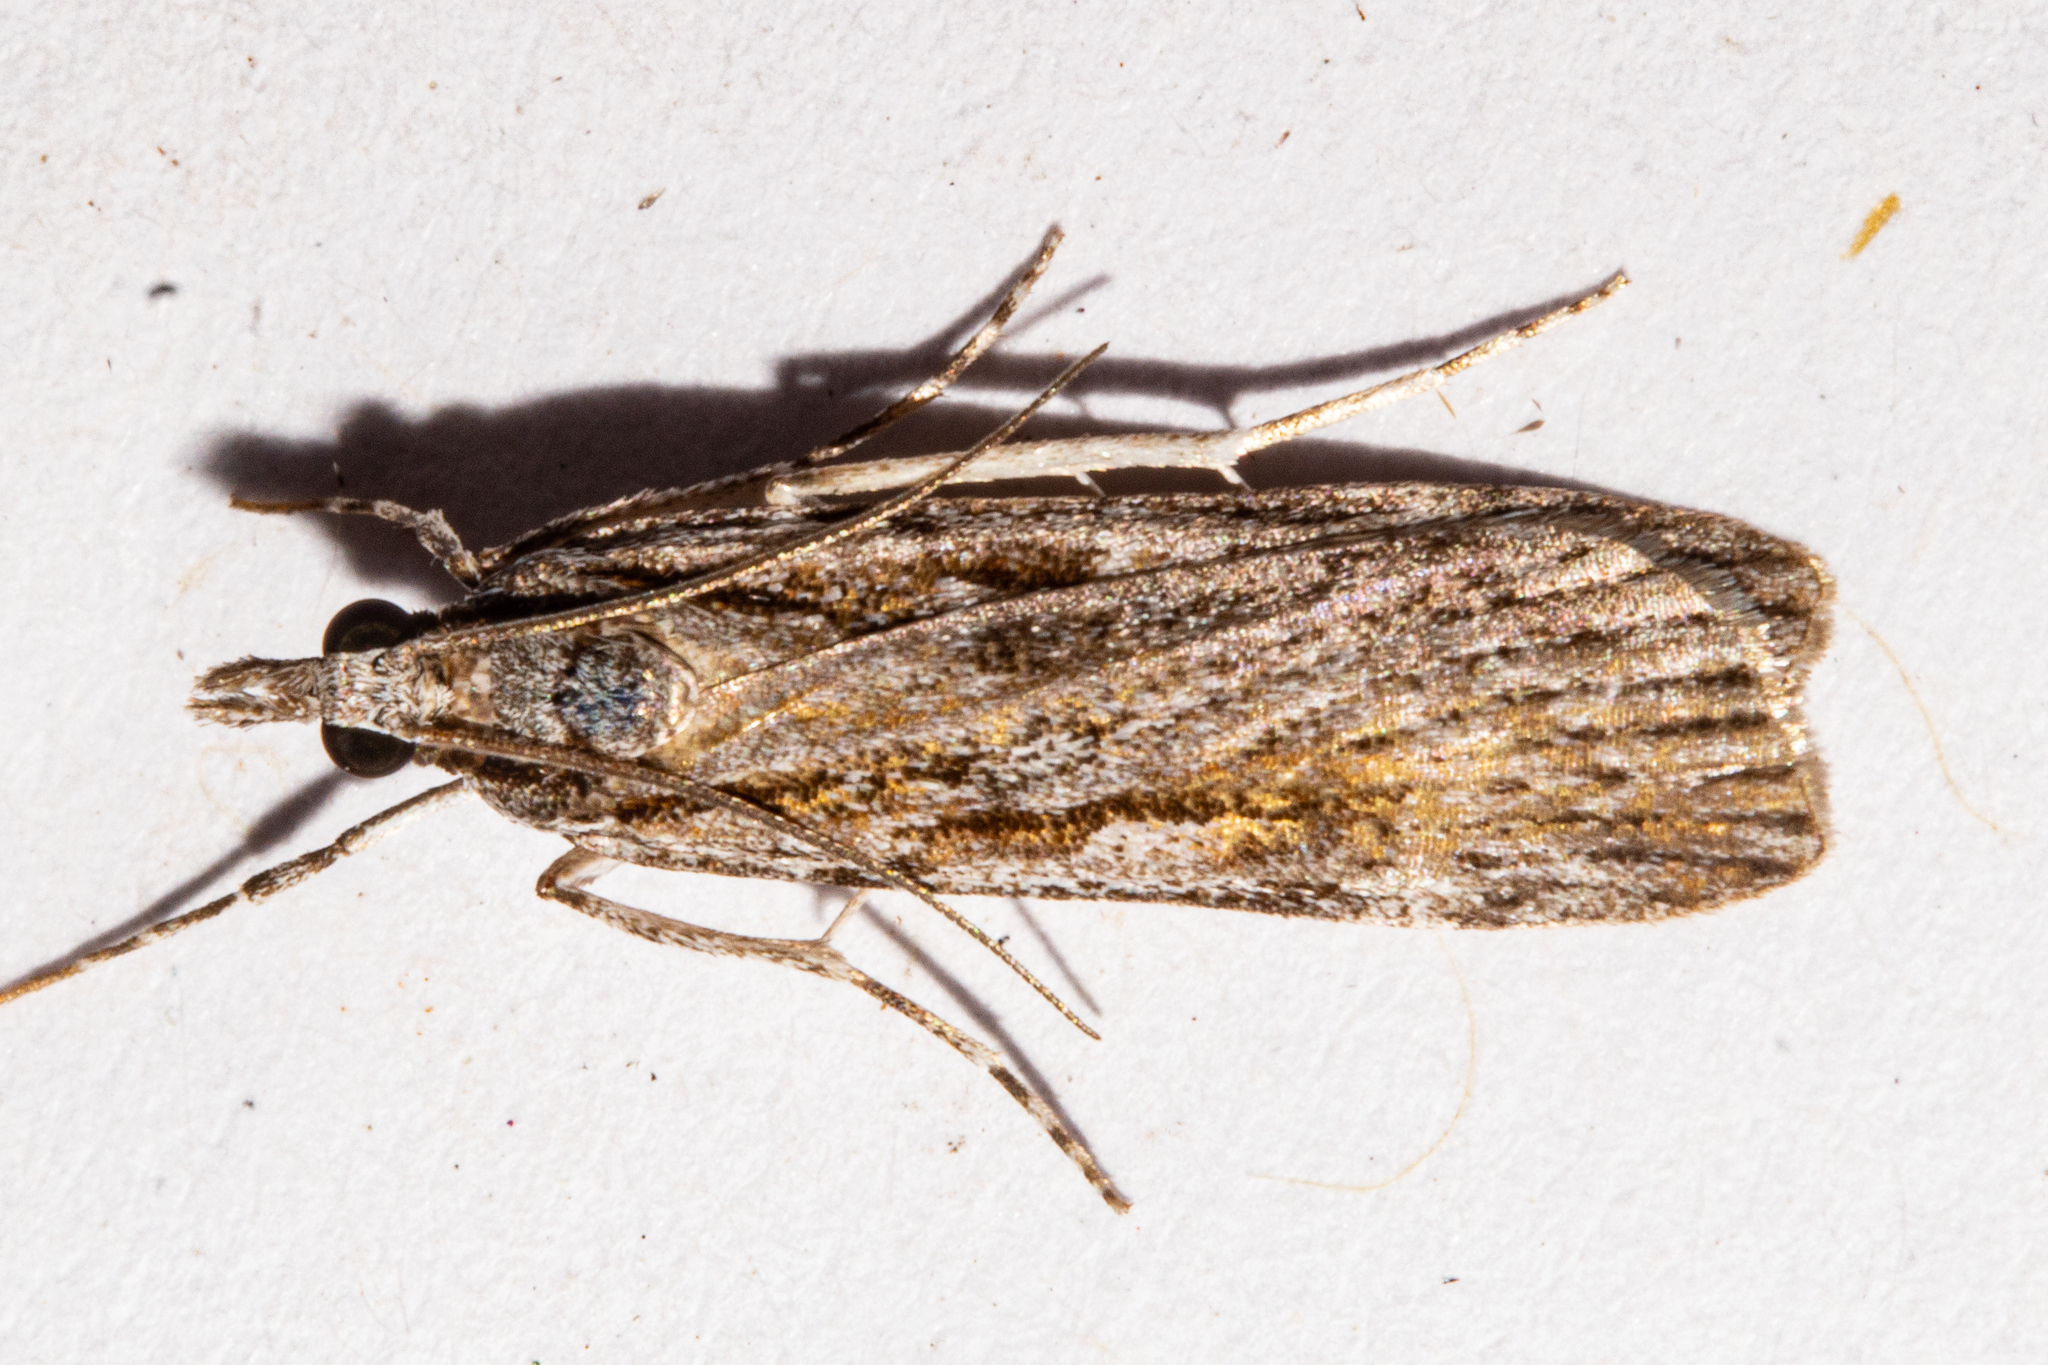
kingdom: Animalia
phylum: Arthropoda
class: Insecta
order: Lepidoptera
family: Crambidae
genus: Scoparia
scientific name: Scoparia indistinctalis
